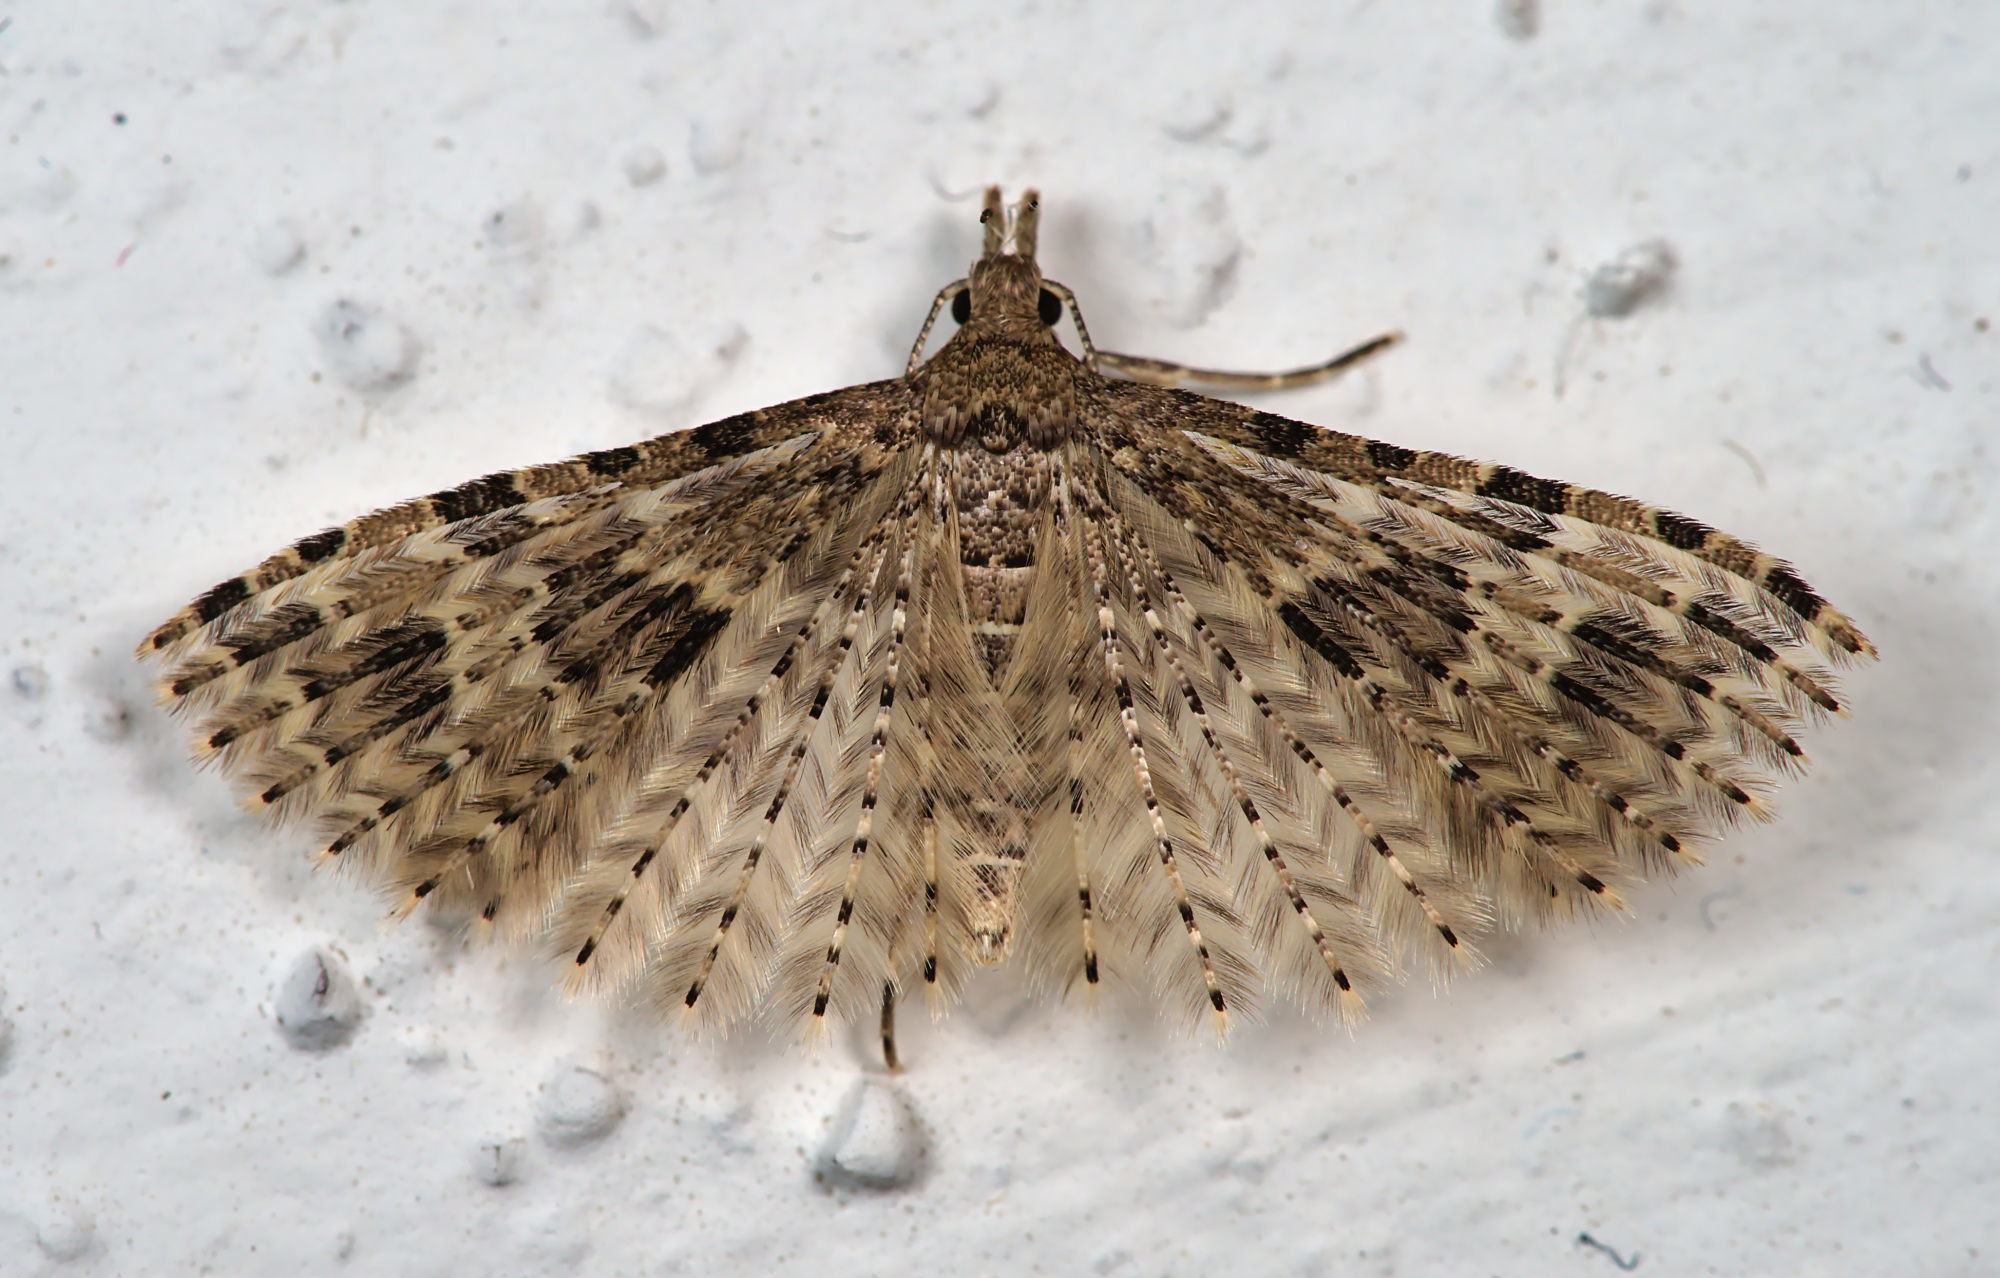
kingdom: Animalia
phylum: Arthropoda
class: Insecta
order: Lepidoptera
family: Alucitidae
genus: Alucita
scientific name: Alucita hexadactyla
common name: Twenty-plume moth
